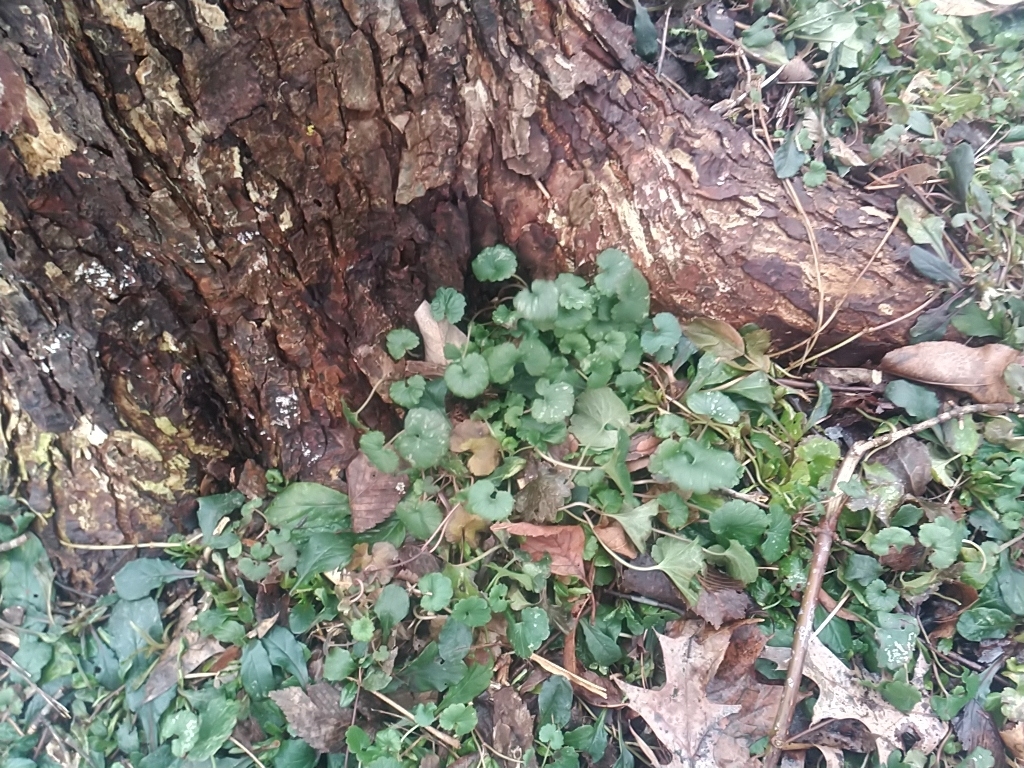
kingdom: Plantae
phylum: Tracheophyta
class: Magnoliopsida
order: Lamiales
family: Lamiaceae
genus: Glechoma
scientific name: Glechoma hederacea
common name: Ground ivy
